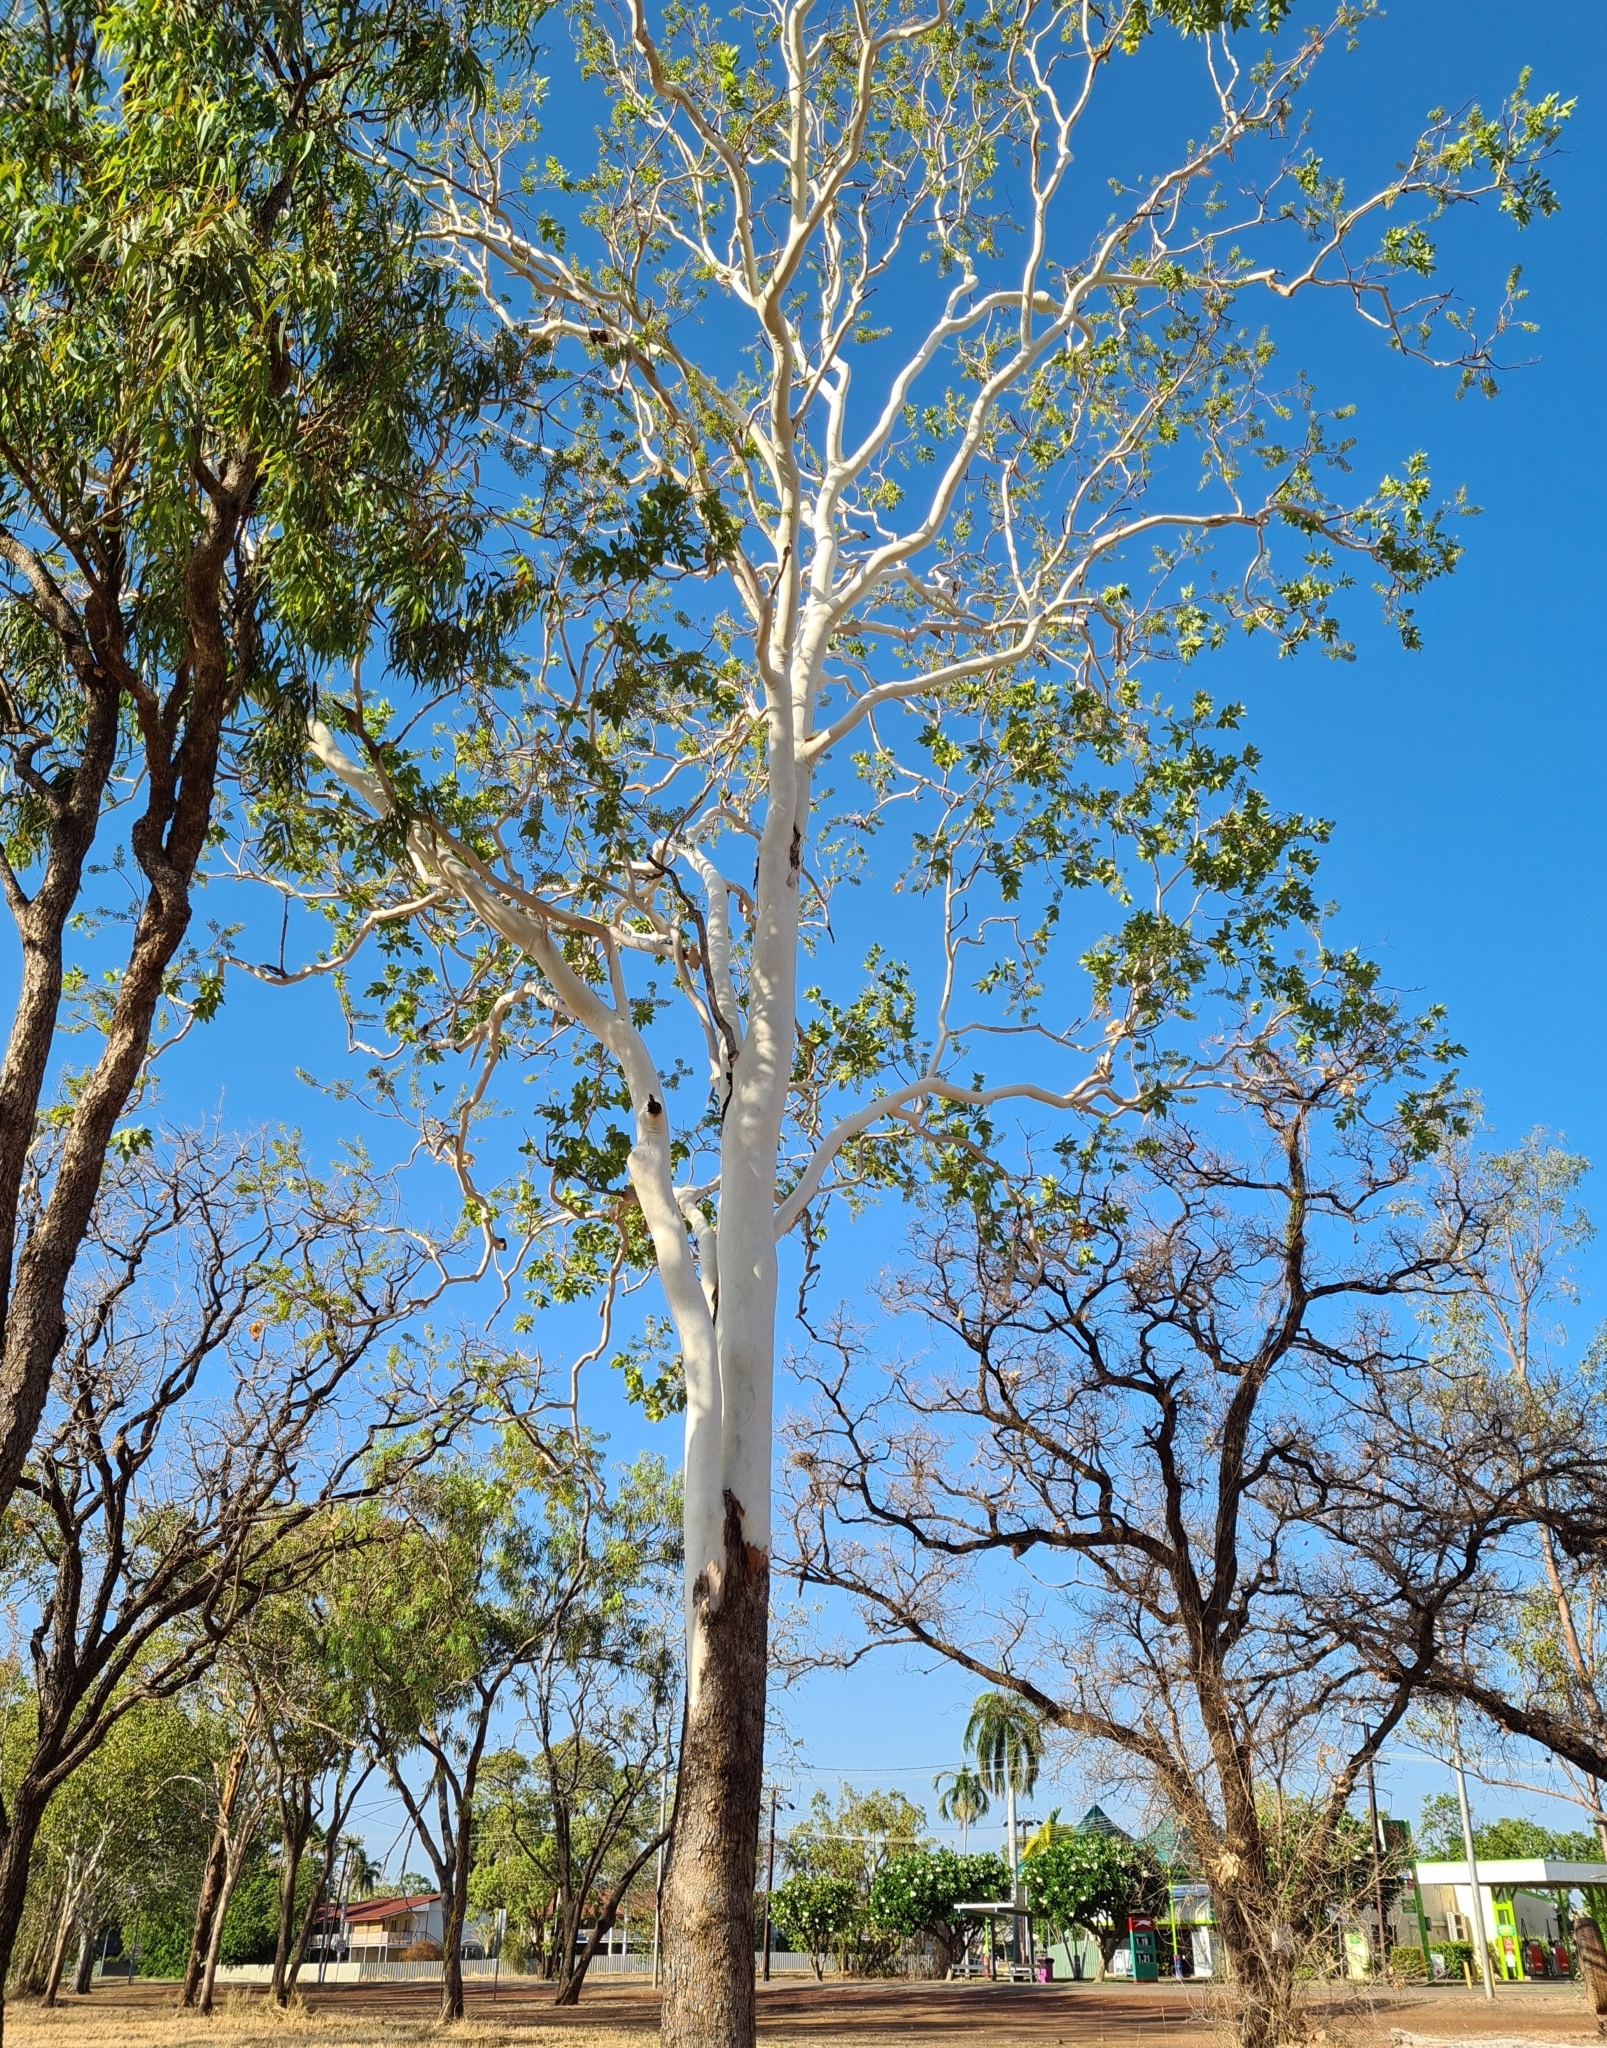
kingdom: Plantae
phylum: Tracheophyta
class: Magnoliopsida
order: Myrtales
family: Myrtaceae
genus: Corymbia
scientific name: Corymbia confertiflora
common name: Broad-leaved-carbeen
